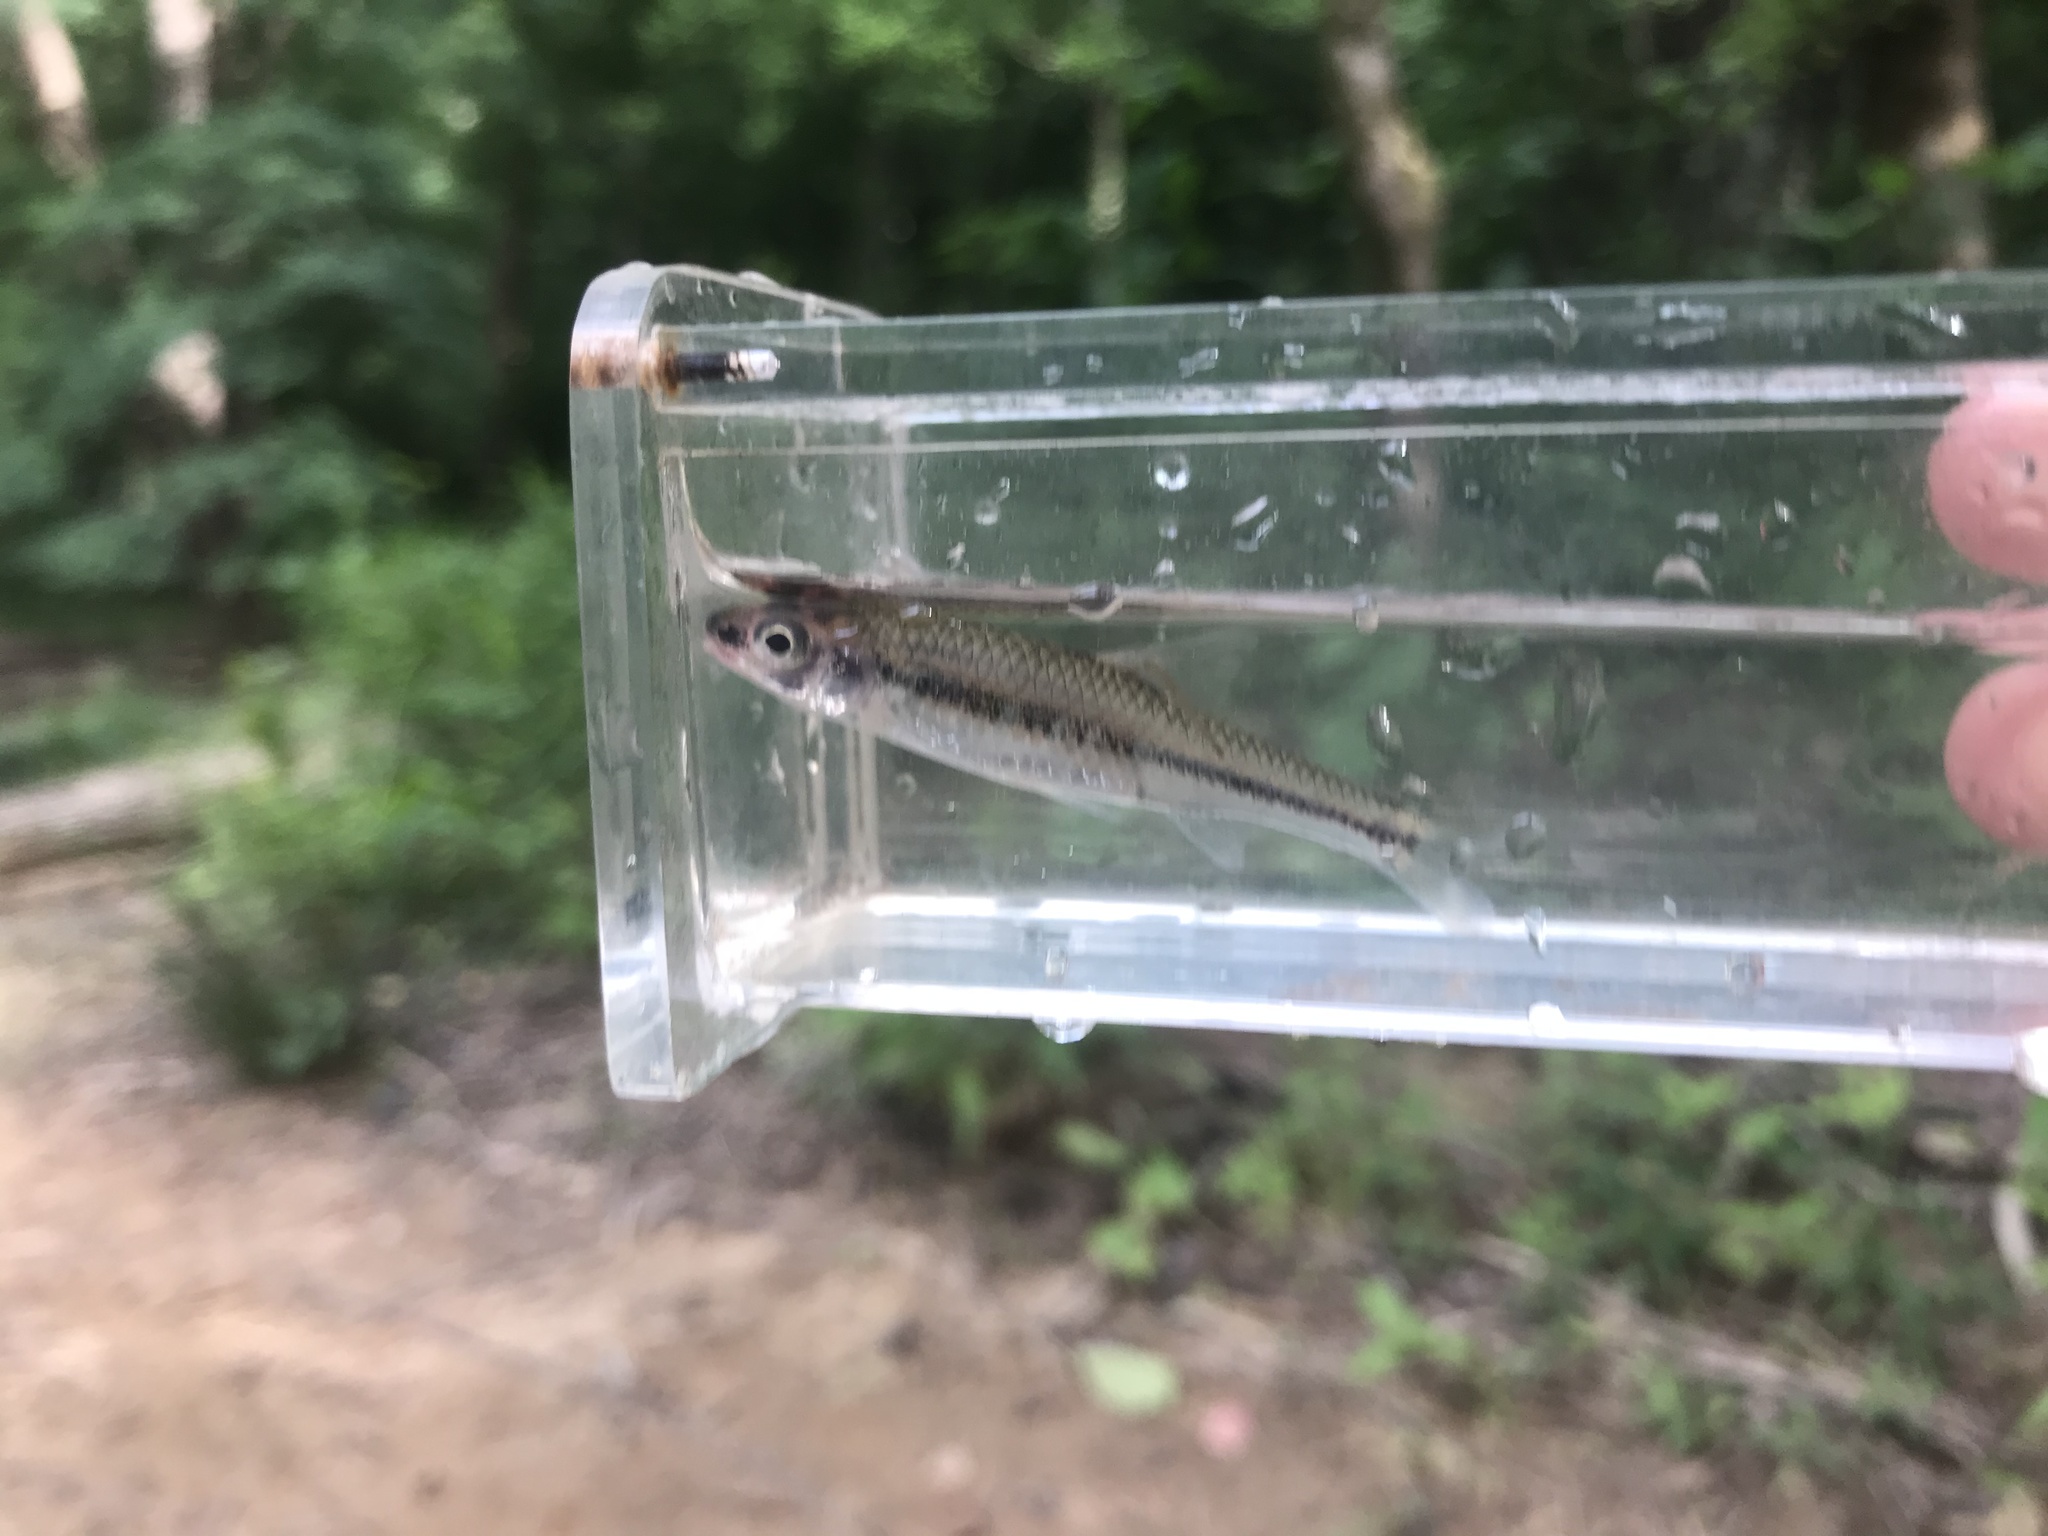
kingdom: Animalia
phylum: Chordata
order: Cypriniformes
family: Cyprinidae
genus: Notropis
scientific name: Notropis
